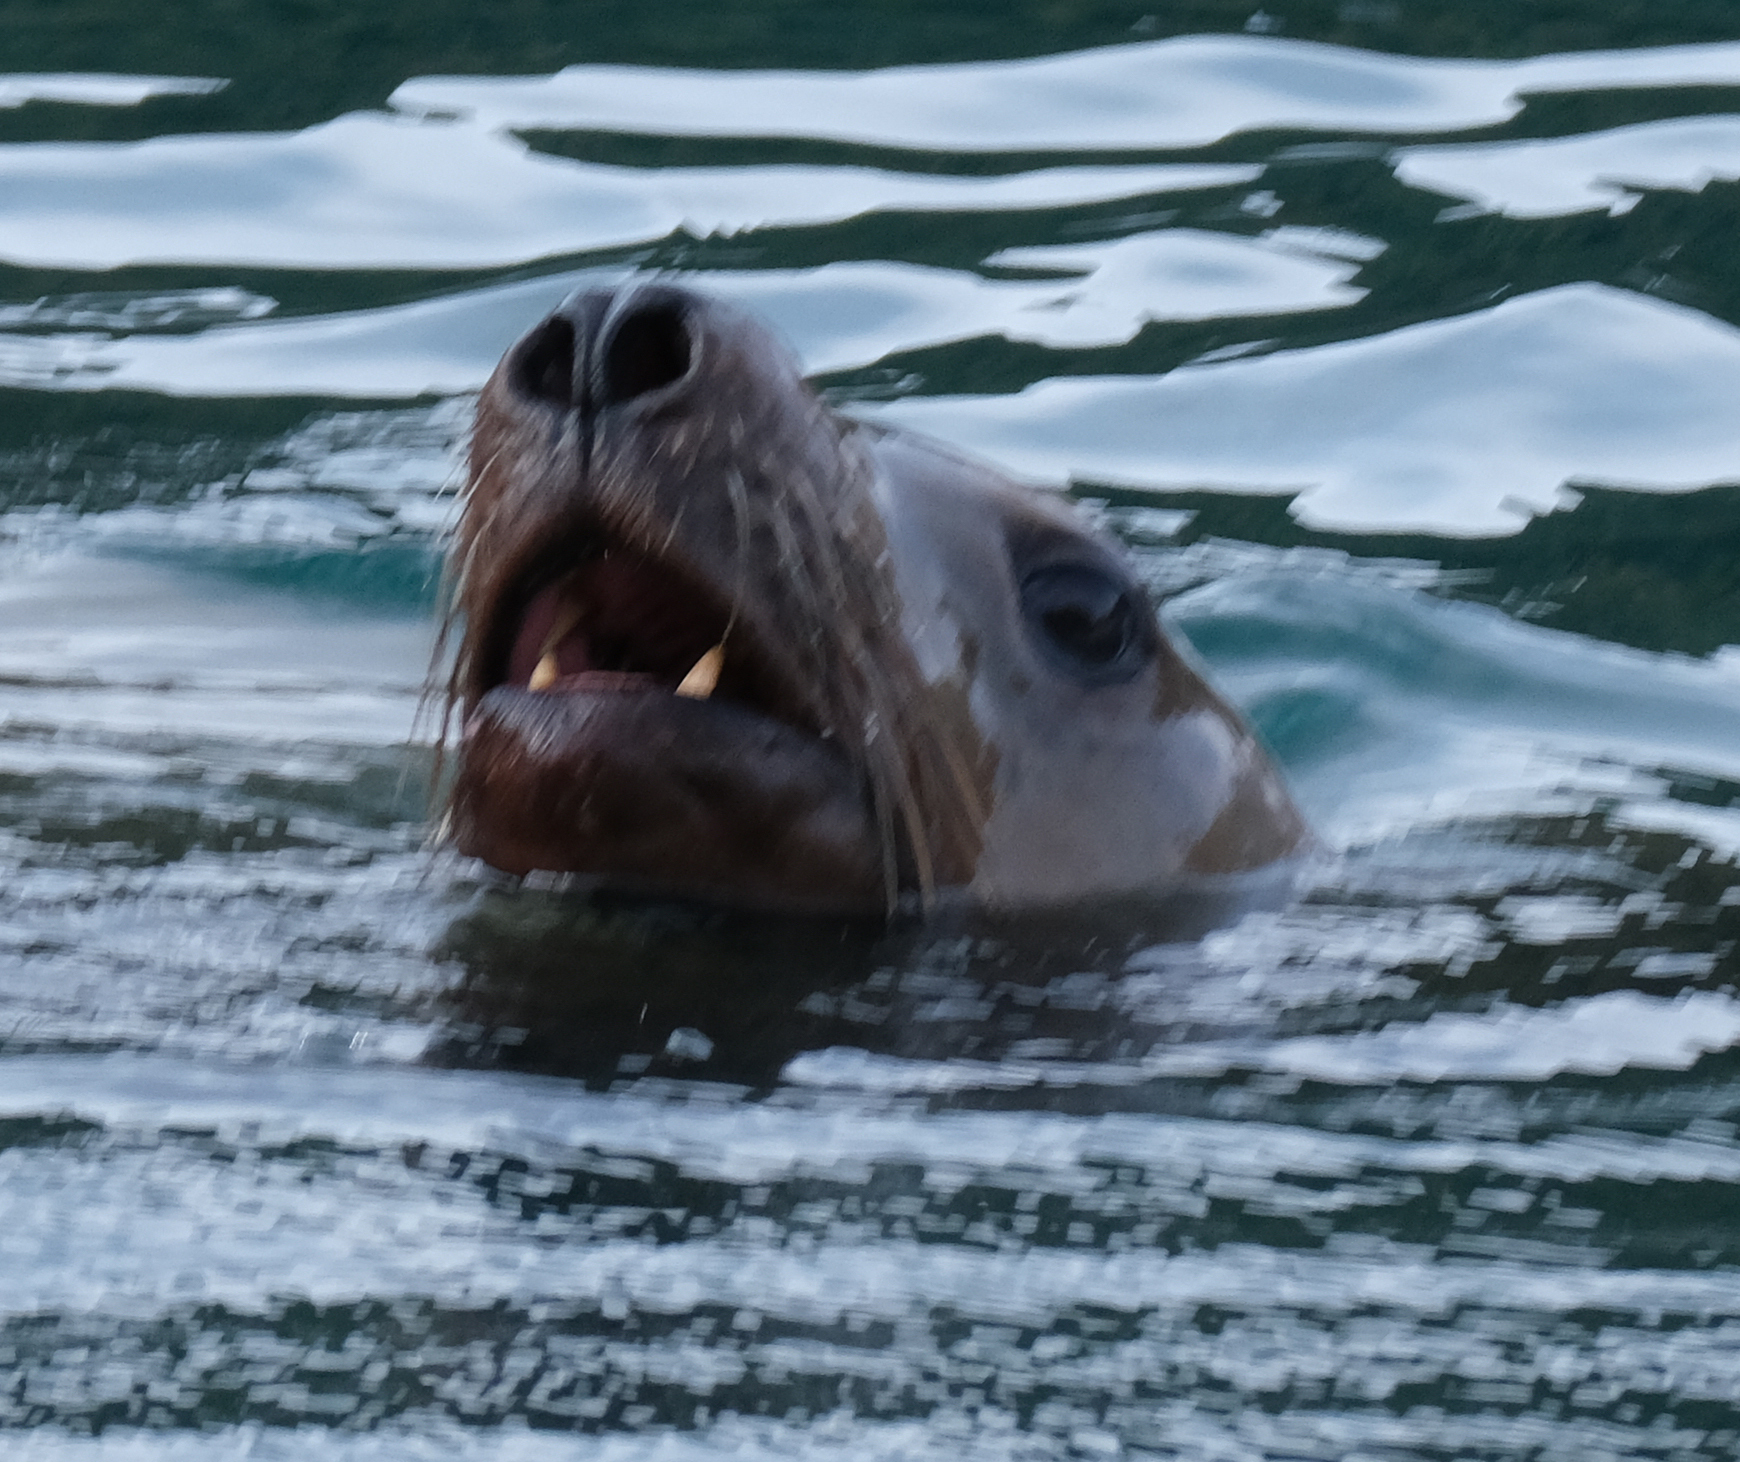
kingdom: Animalia
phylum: Chordata
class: Mammalia
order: Carnivora
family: Otariidae
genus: Eumetopias
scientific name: Eumetopias jubatus
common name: Steller sea lion
